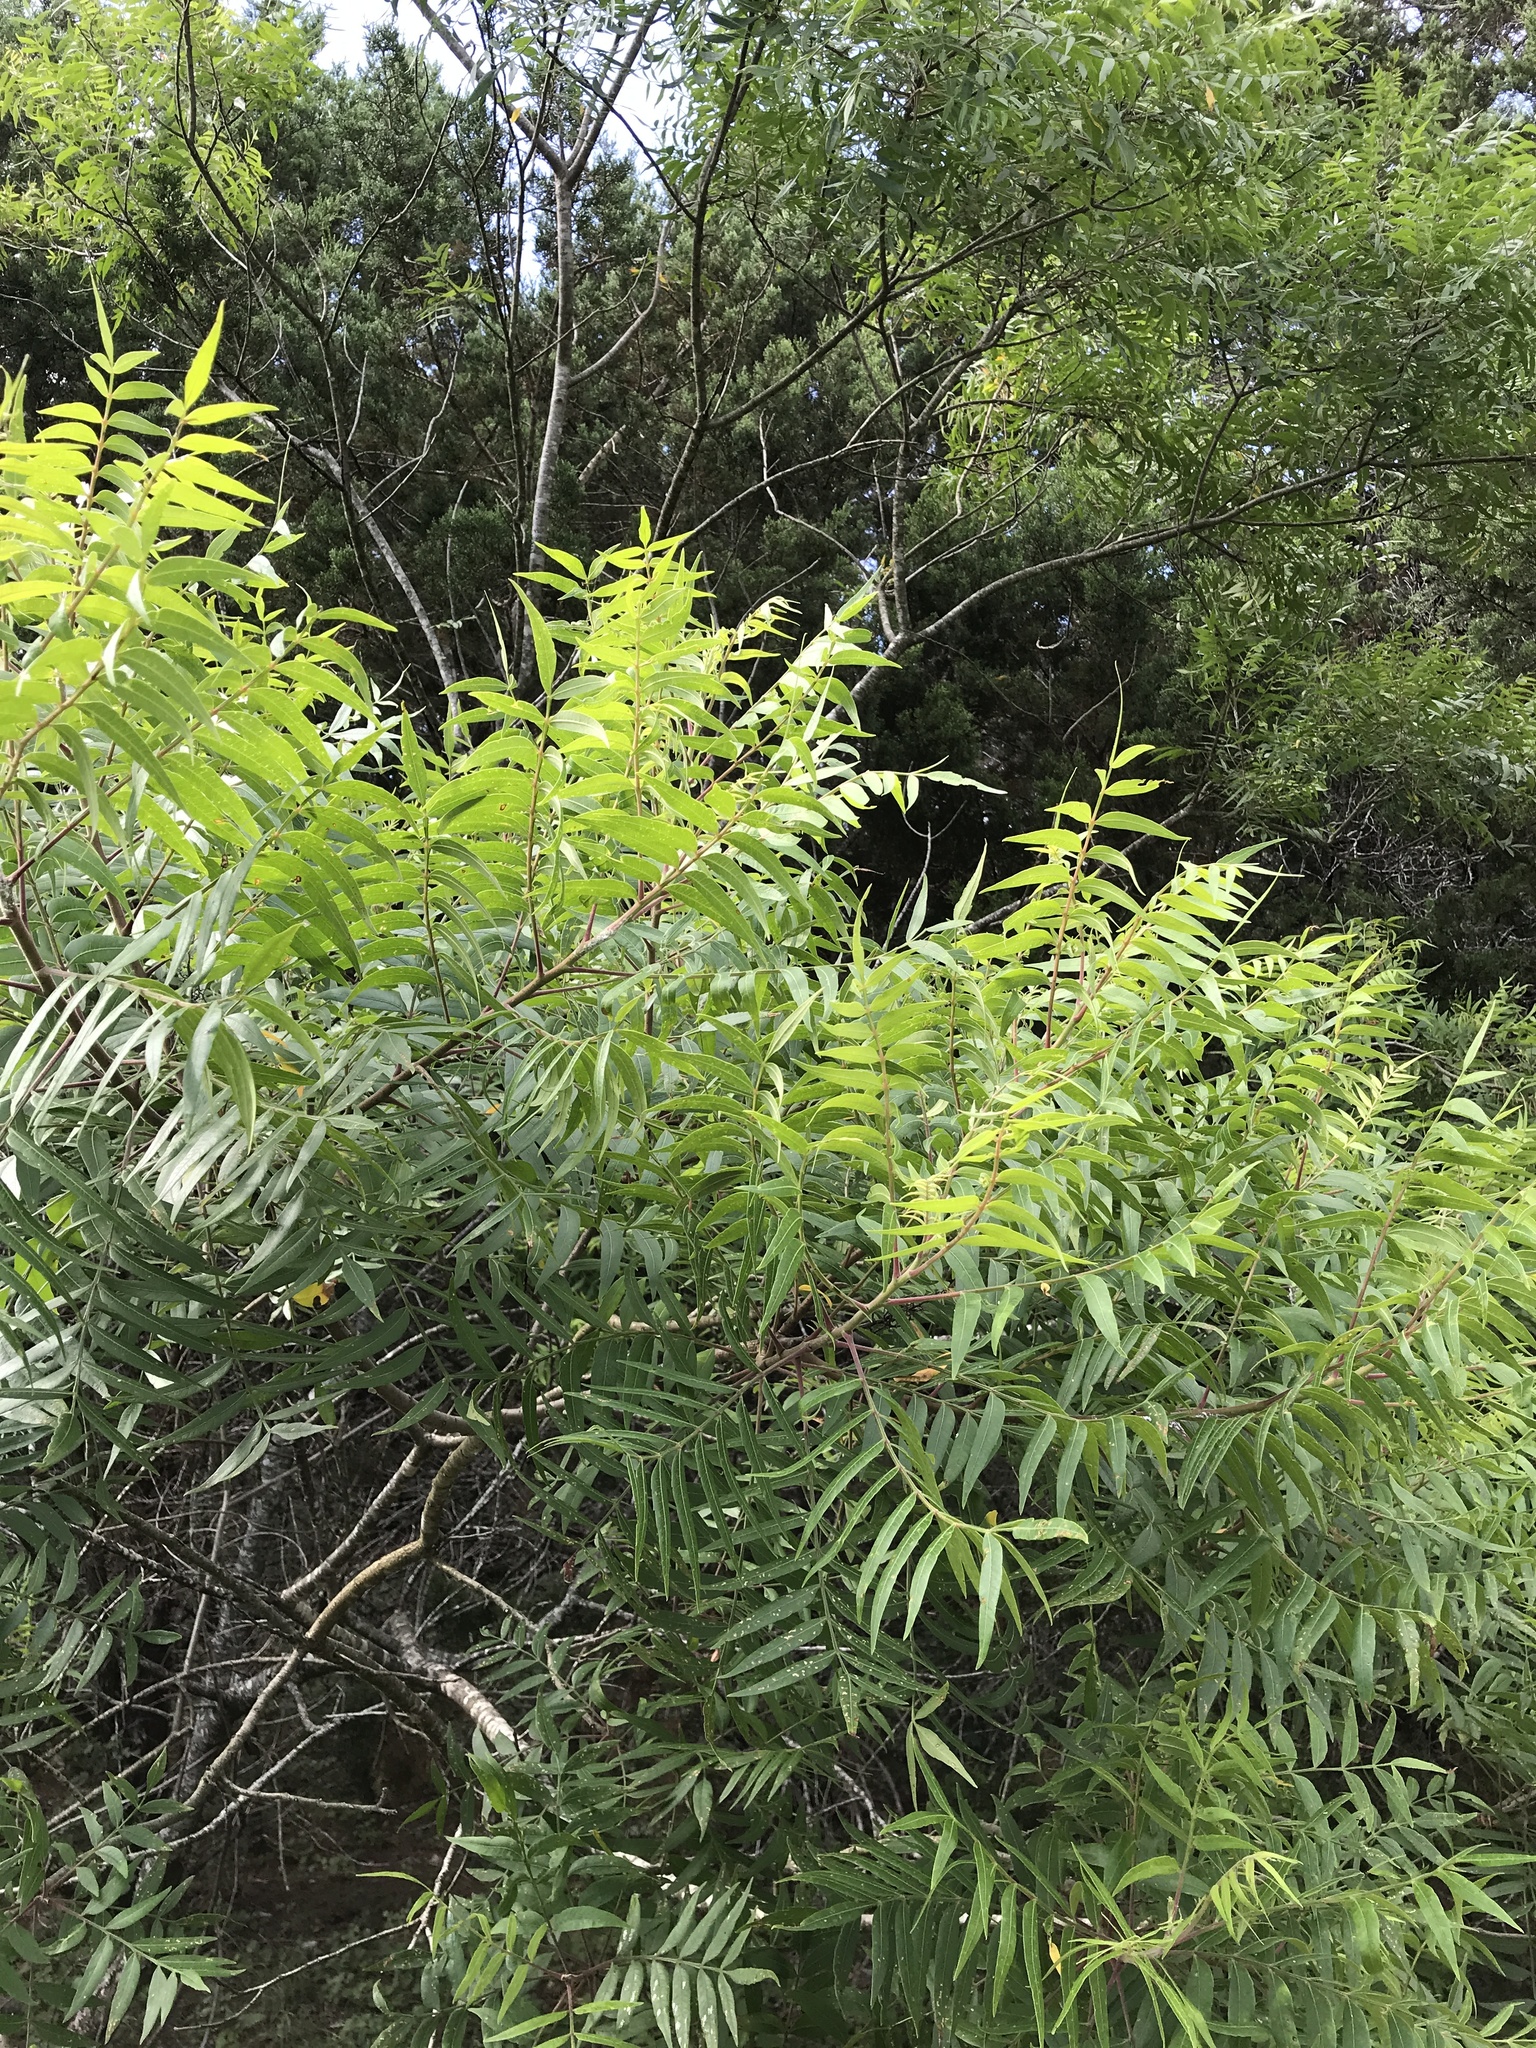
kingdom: Plantae
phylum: Tracheophyta
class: Magnoliopsida
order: Sapindales
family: Anacardiaceae
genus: Rhus
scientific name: Rhus lanceolata
